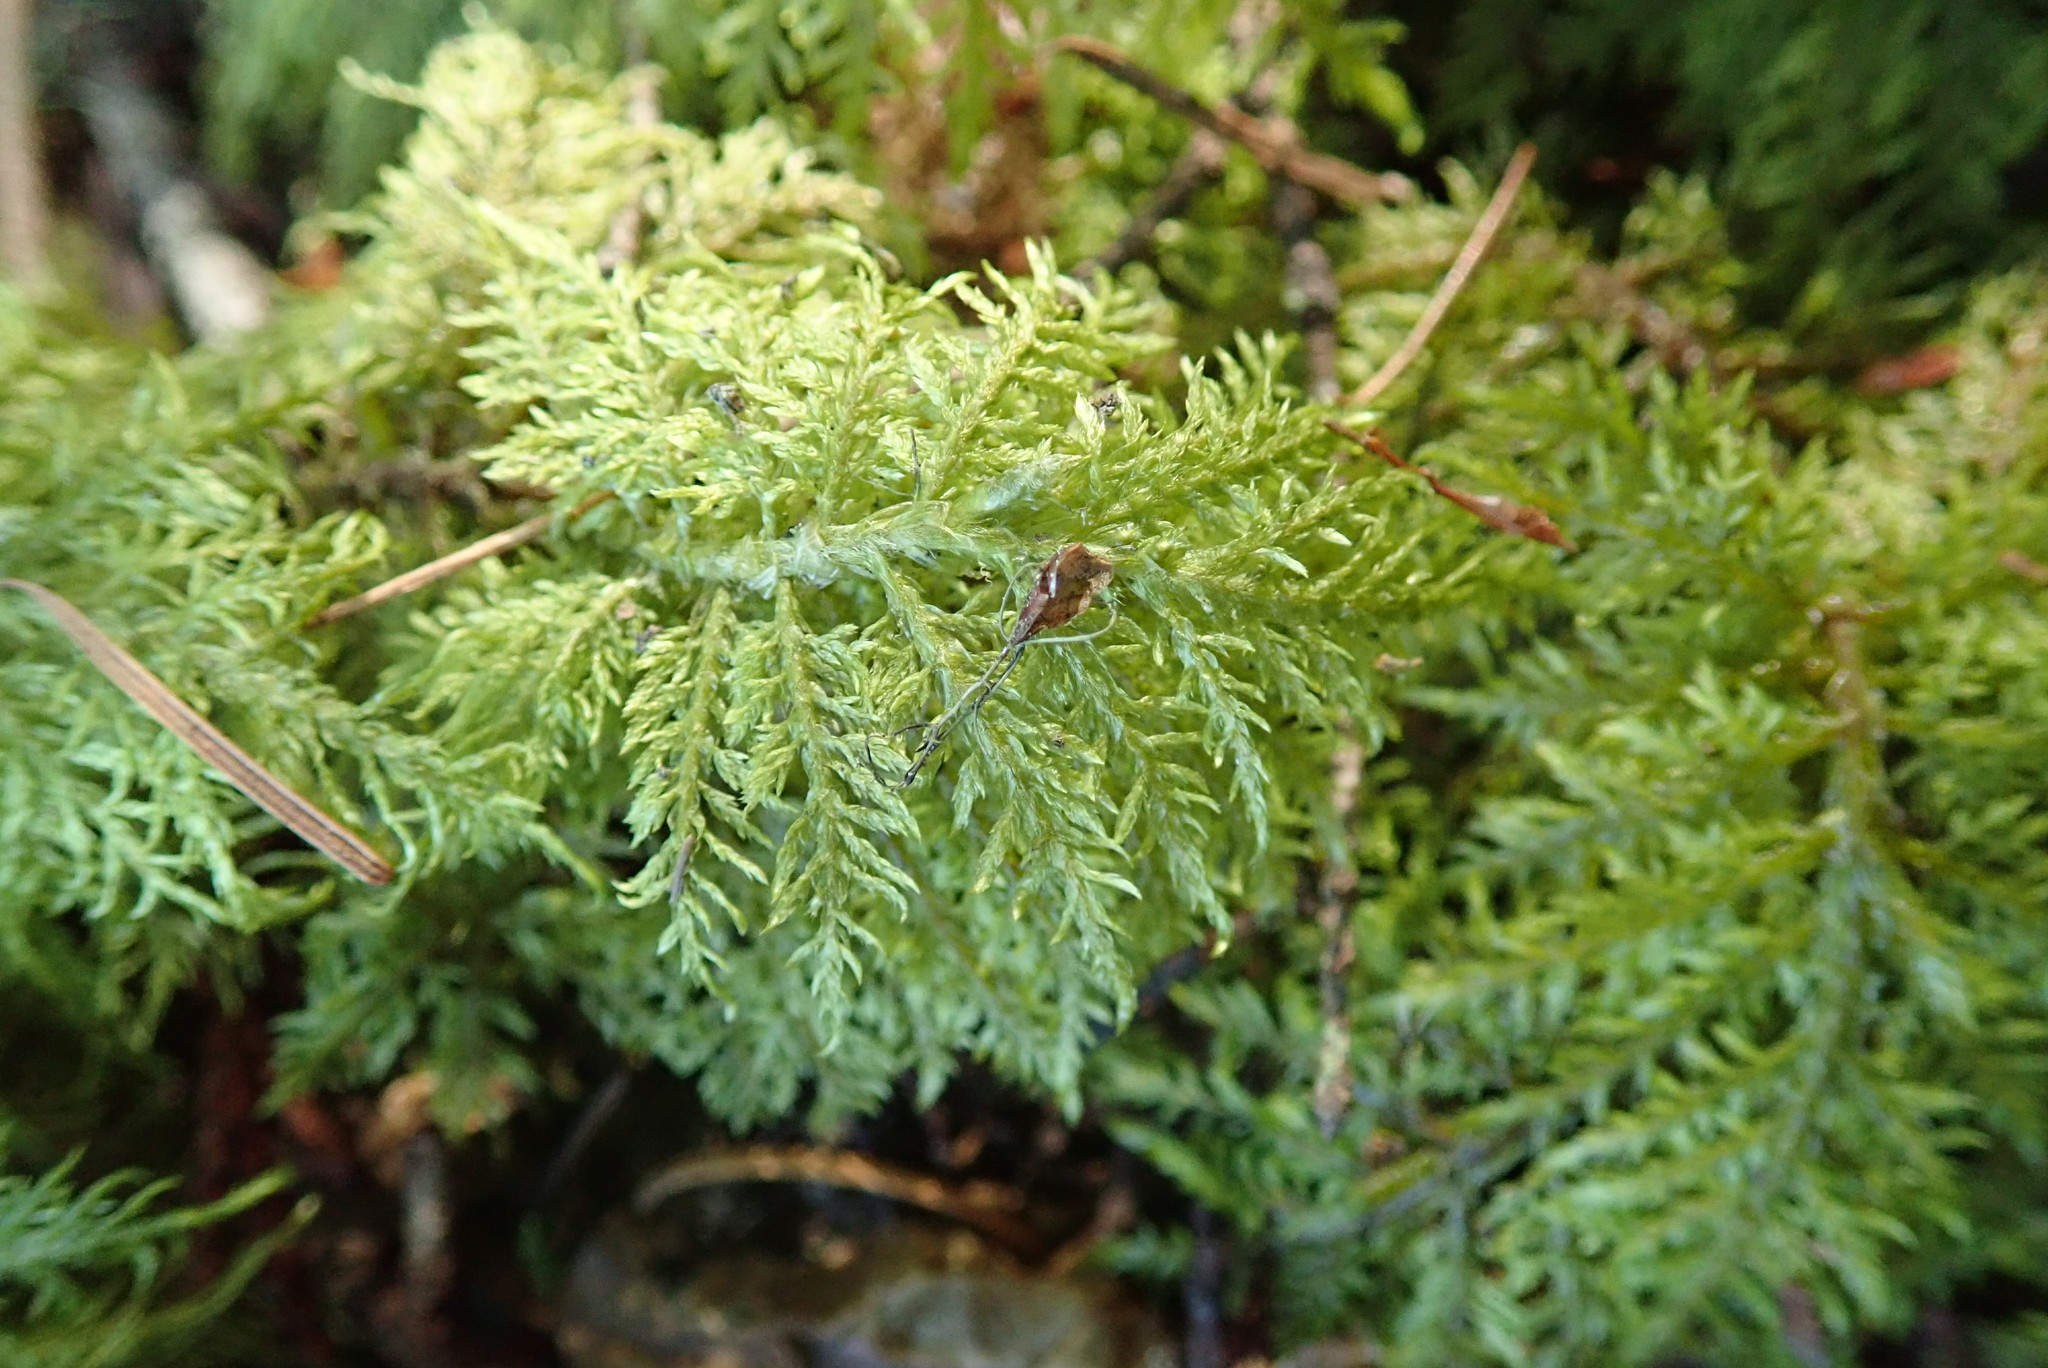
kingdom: Plantae
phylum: Bryophyta
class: Bryopsida
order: Hypnales
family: Hylocomiaceae
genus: Hylocomium
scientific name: Hylocomium splendens
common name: Stairstep moss
